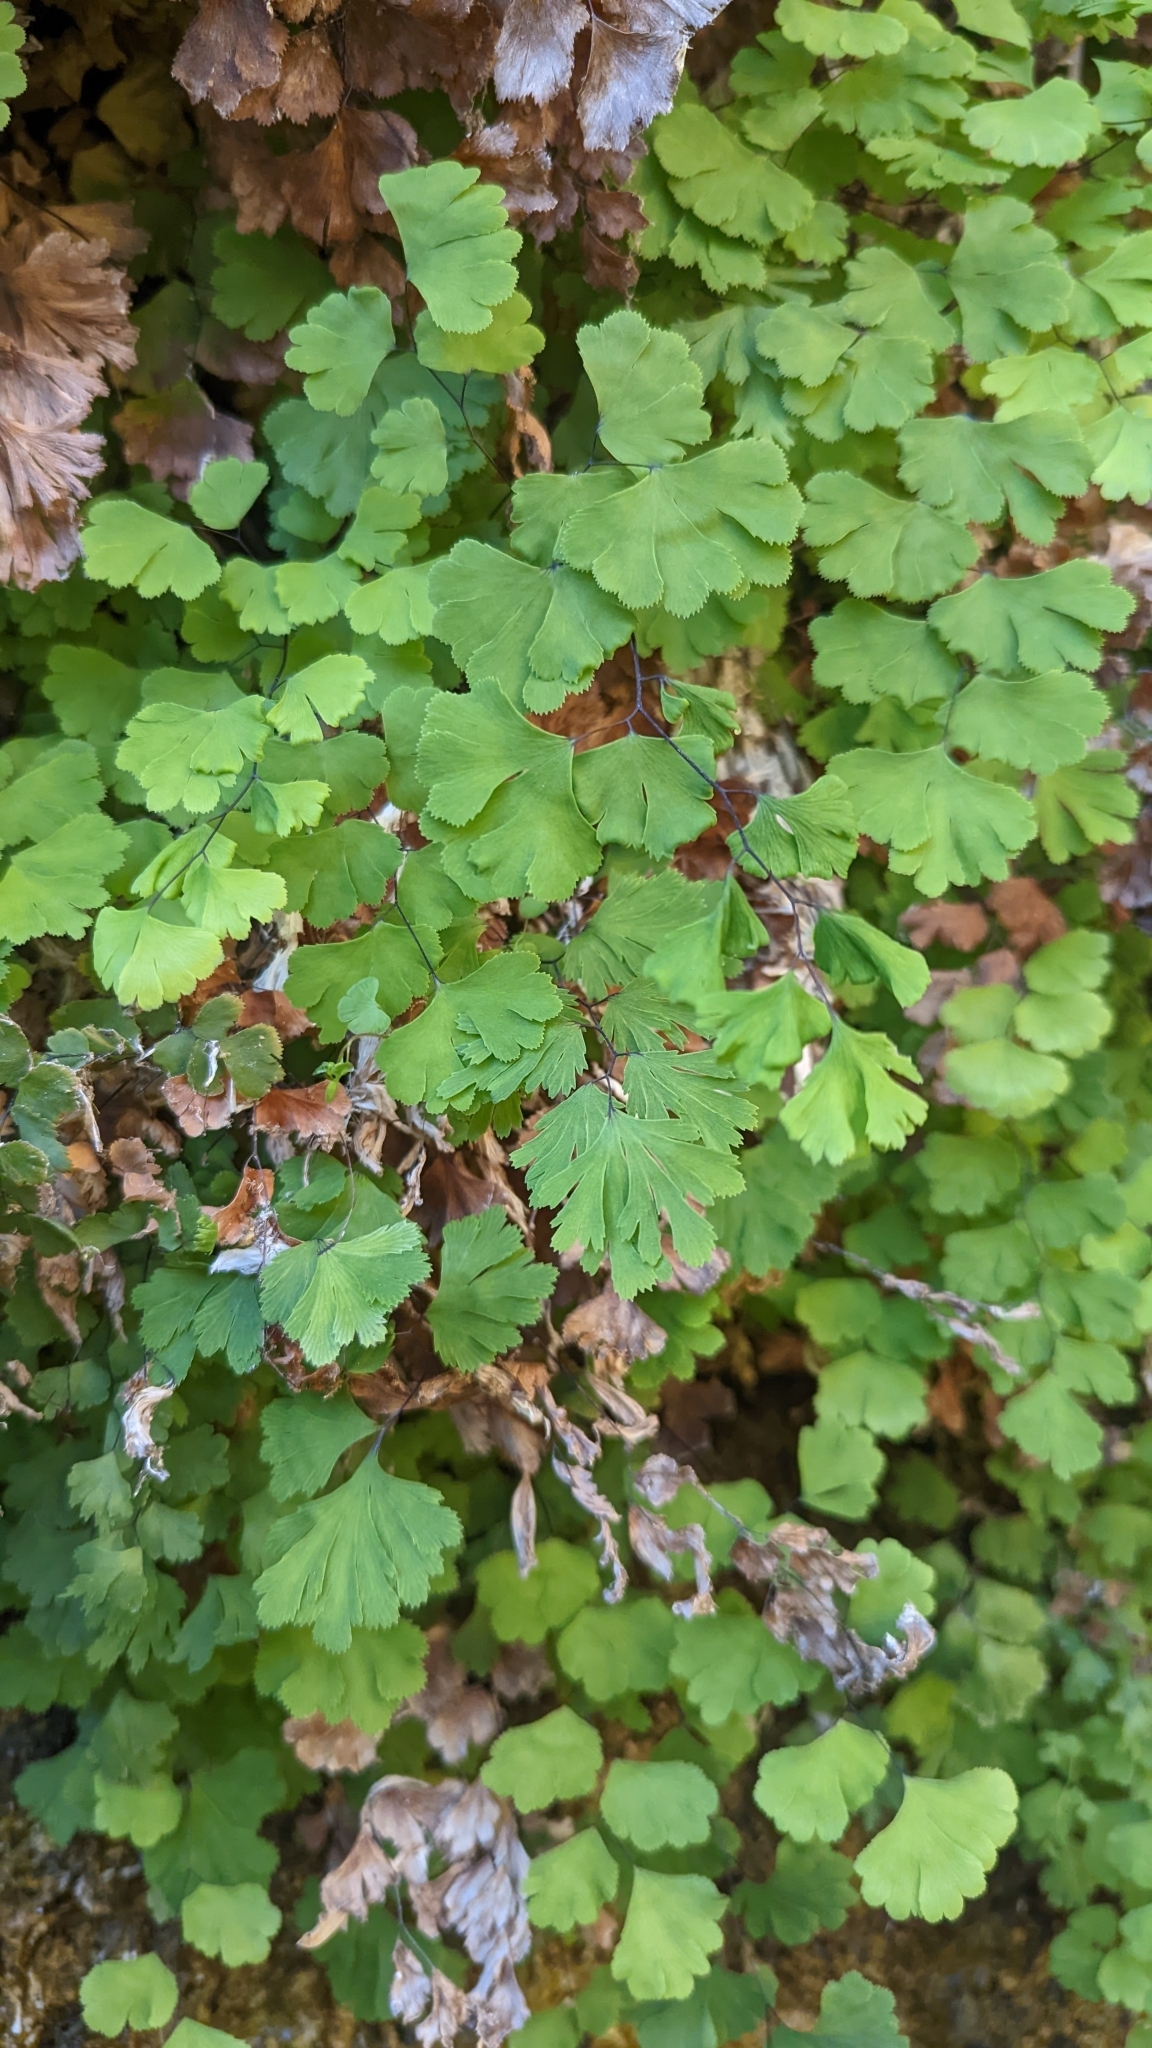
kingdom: Plantae
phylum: Tracheophyta
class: Polypodiopsida
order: Polypodiales
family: Pteridaceae
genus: Adiantum
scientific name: Adiantum capillus-veneris
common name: Maidenhair fern
